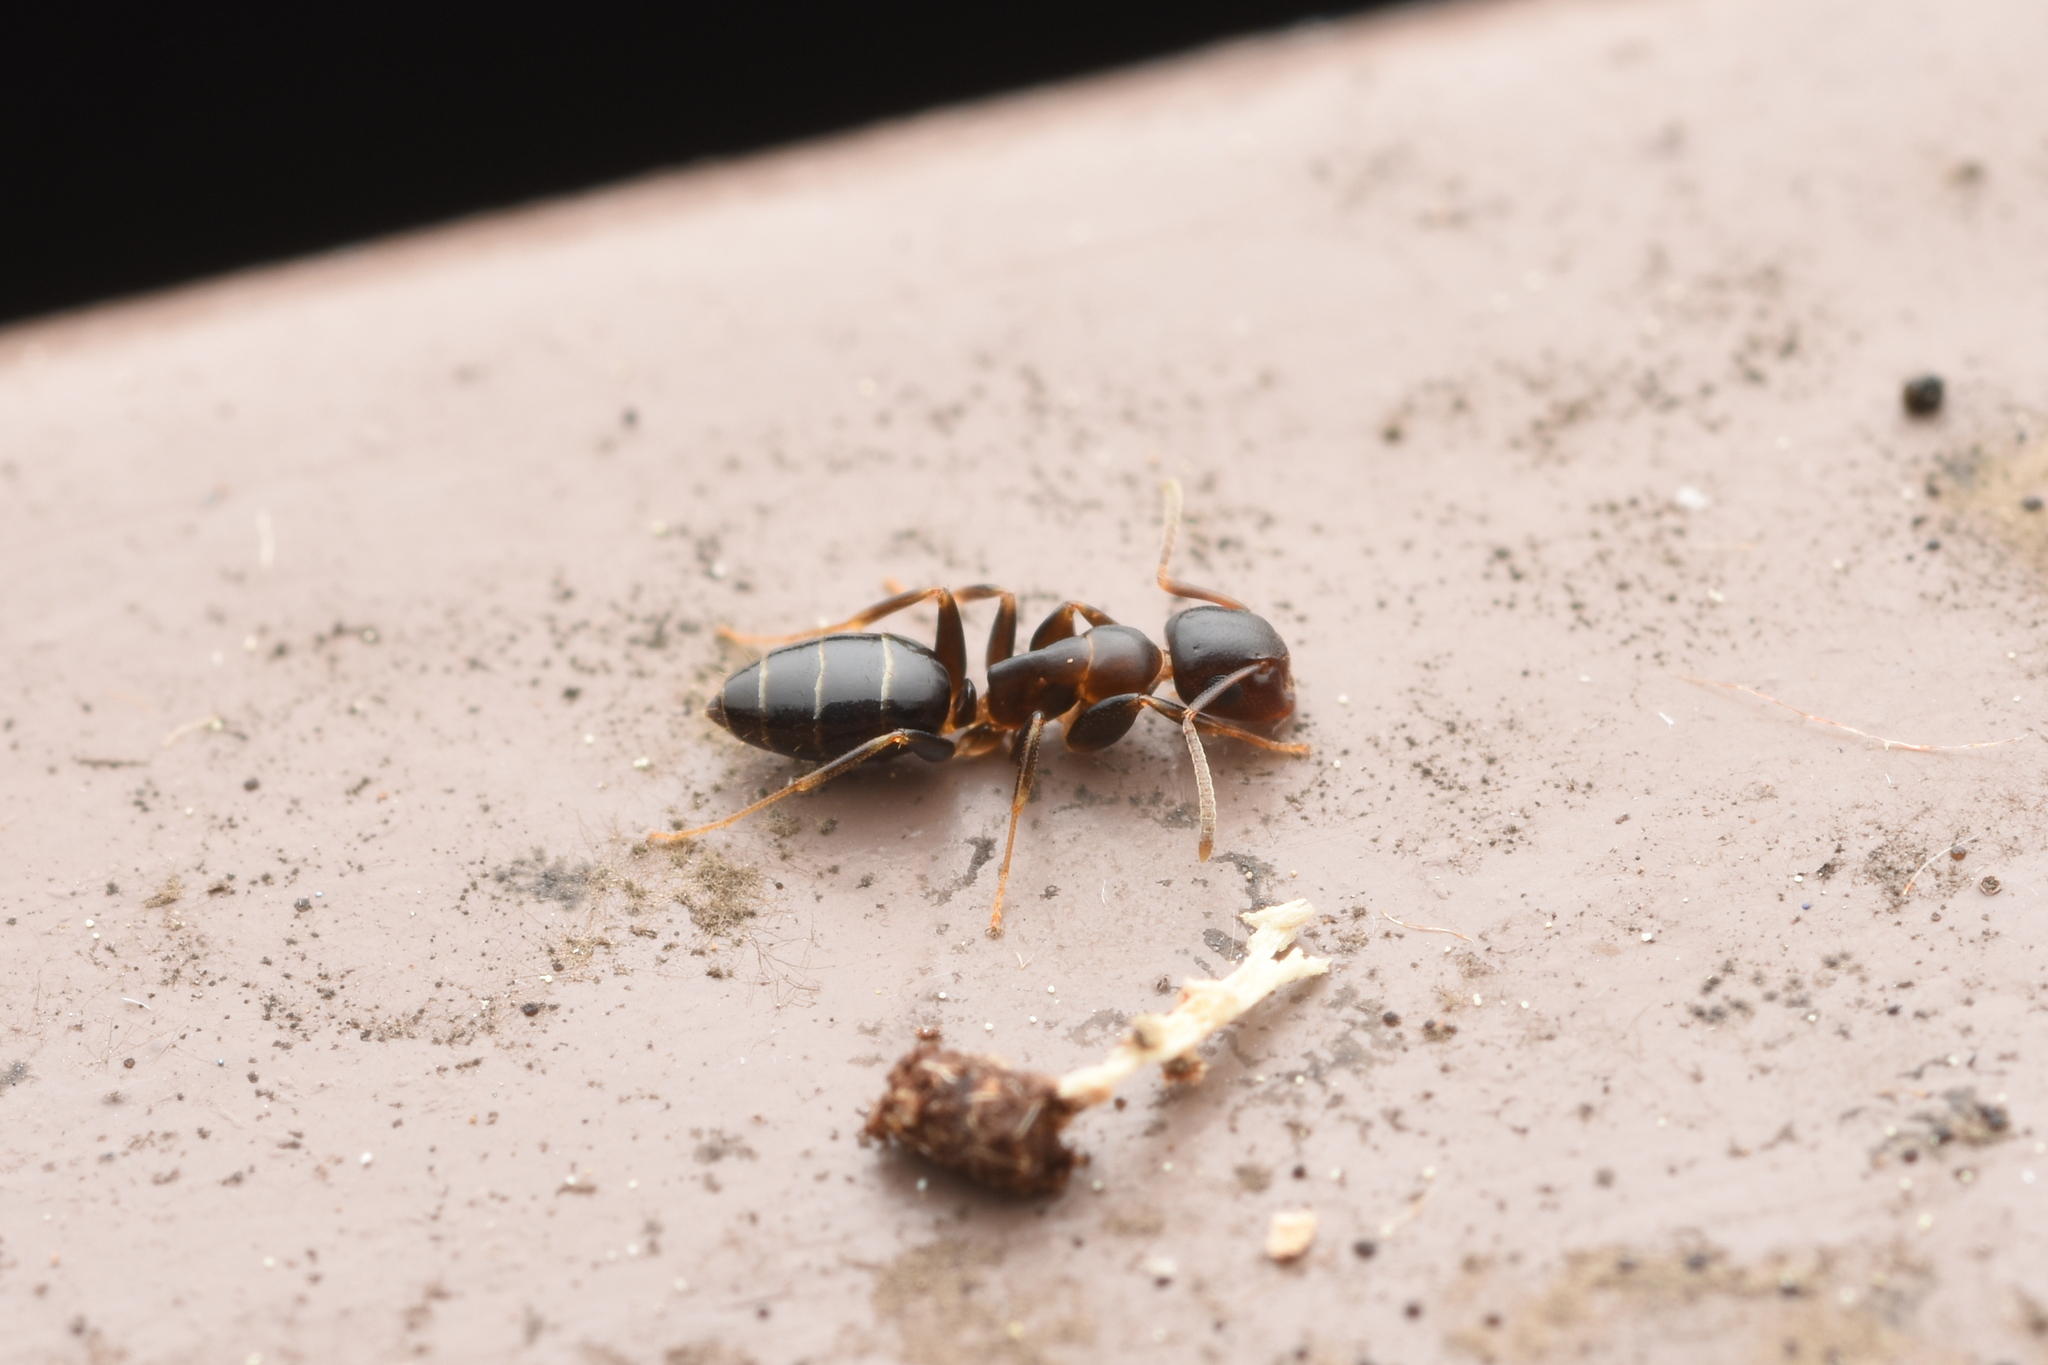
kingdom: Animalia
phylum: Arthropoda
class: Insecta
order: Hymenoptera
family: Formicidae
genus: Colobopsis
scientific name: Colobopsis
